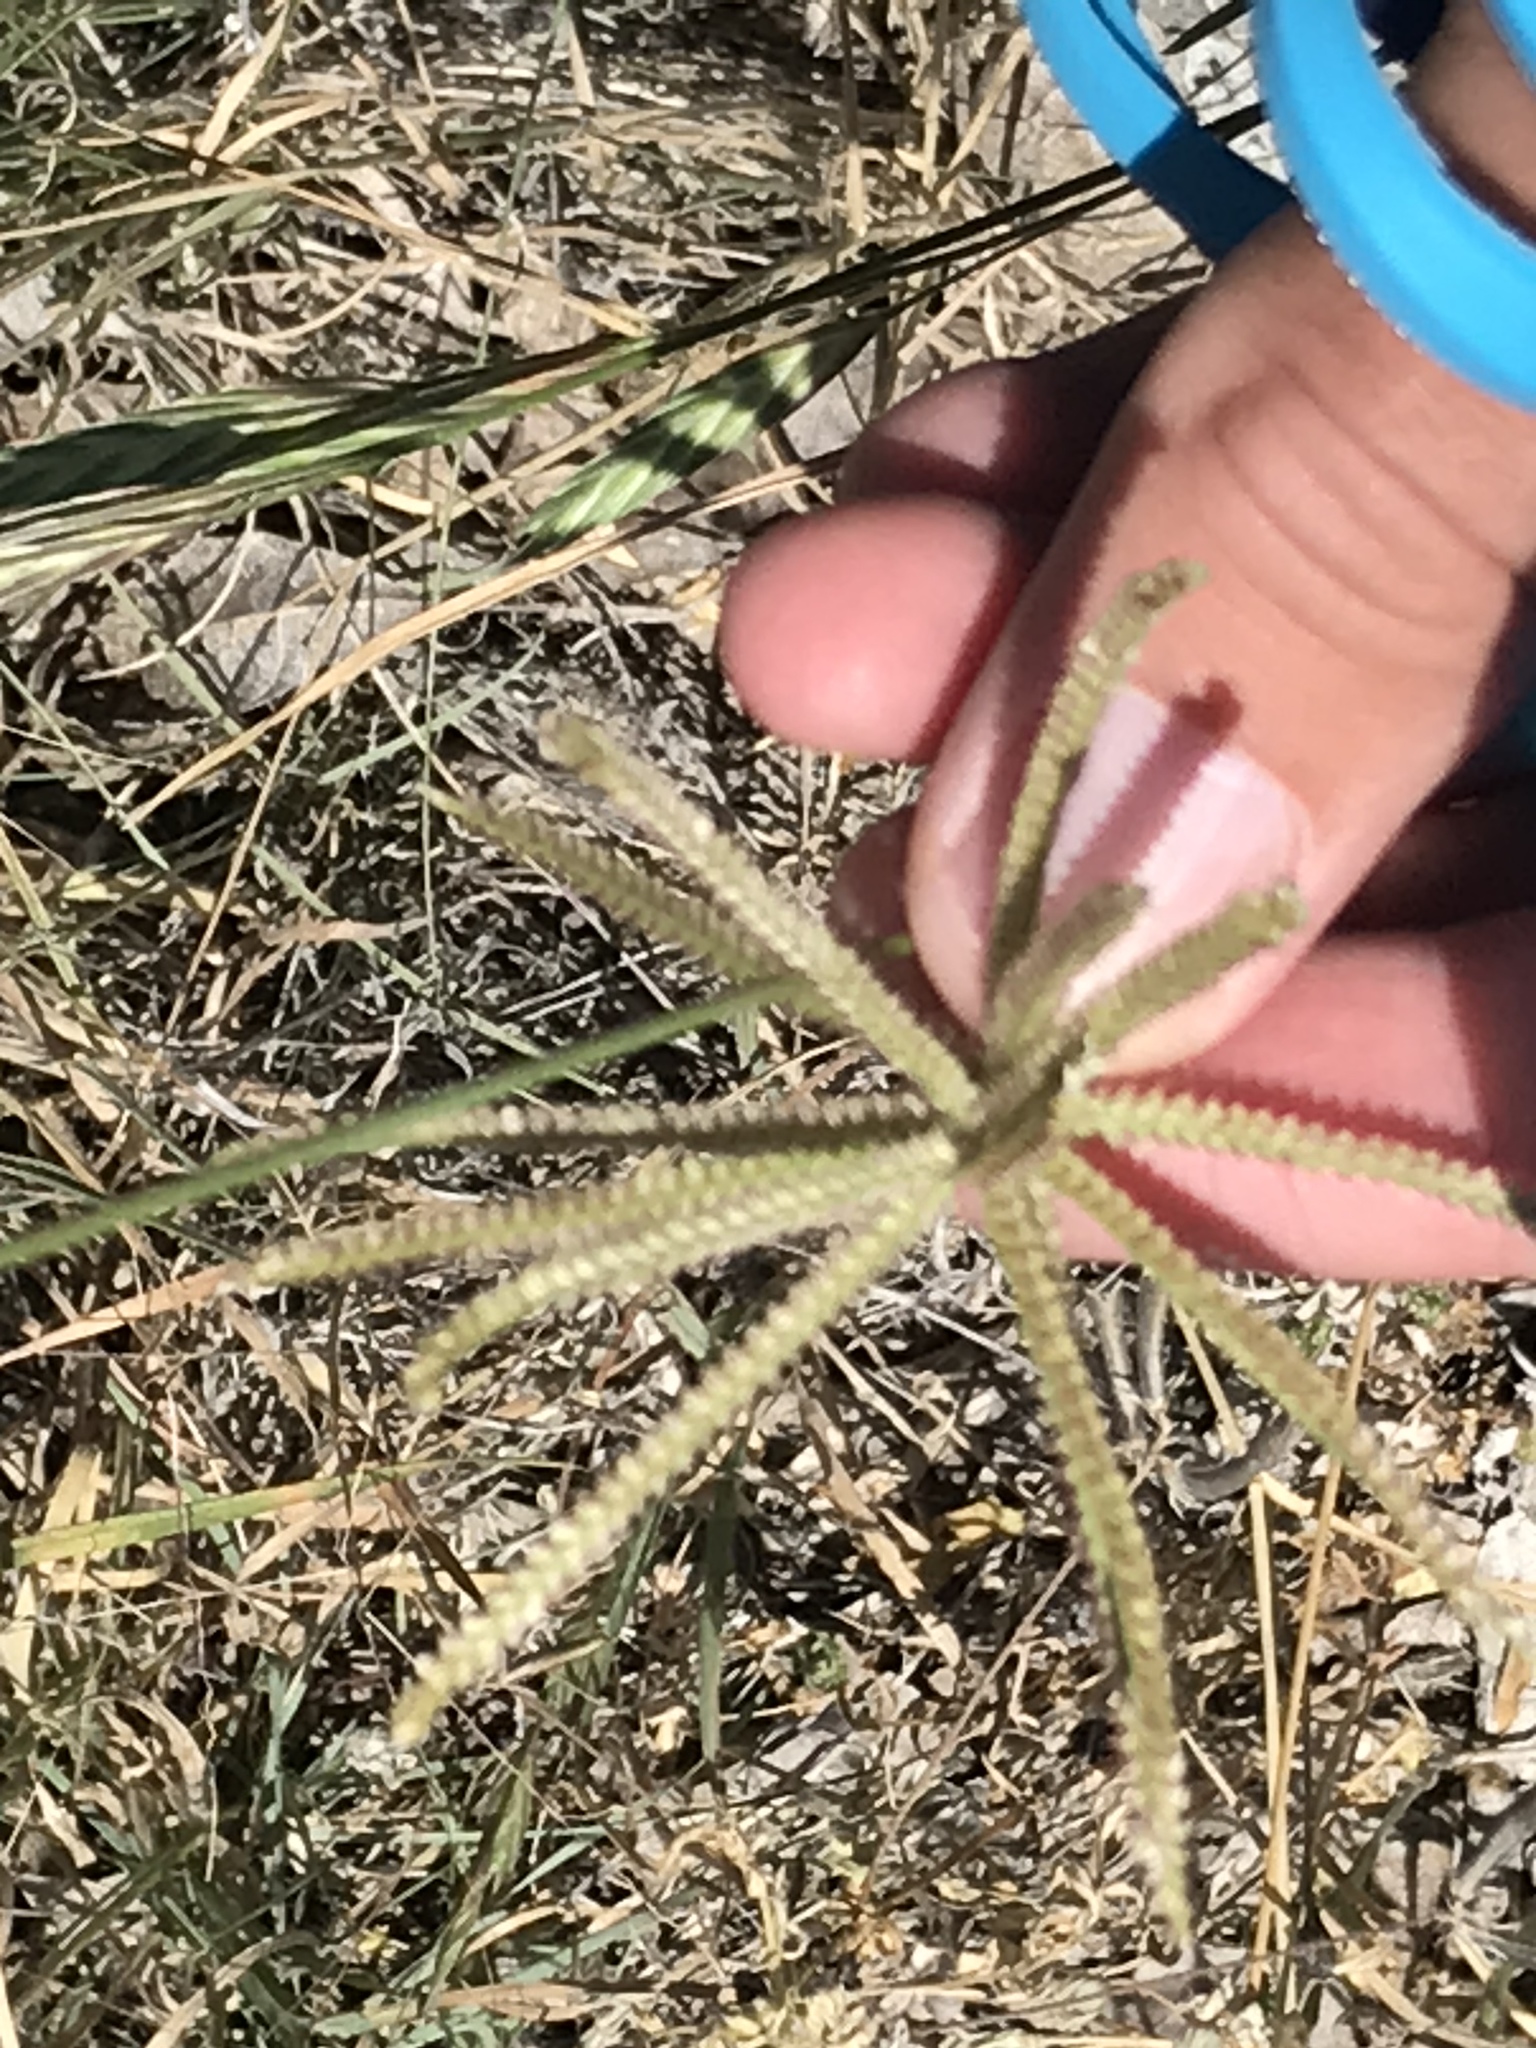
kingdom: Plantae
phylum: Tracheophyta
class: Liliopsida
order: Poales
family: Poaceae
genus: Chloris
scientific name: Chloris cucullata
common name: Hooded windmill grass
